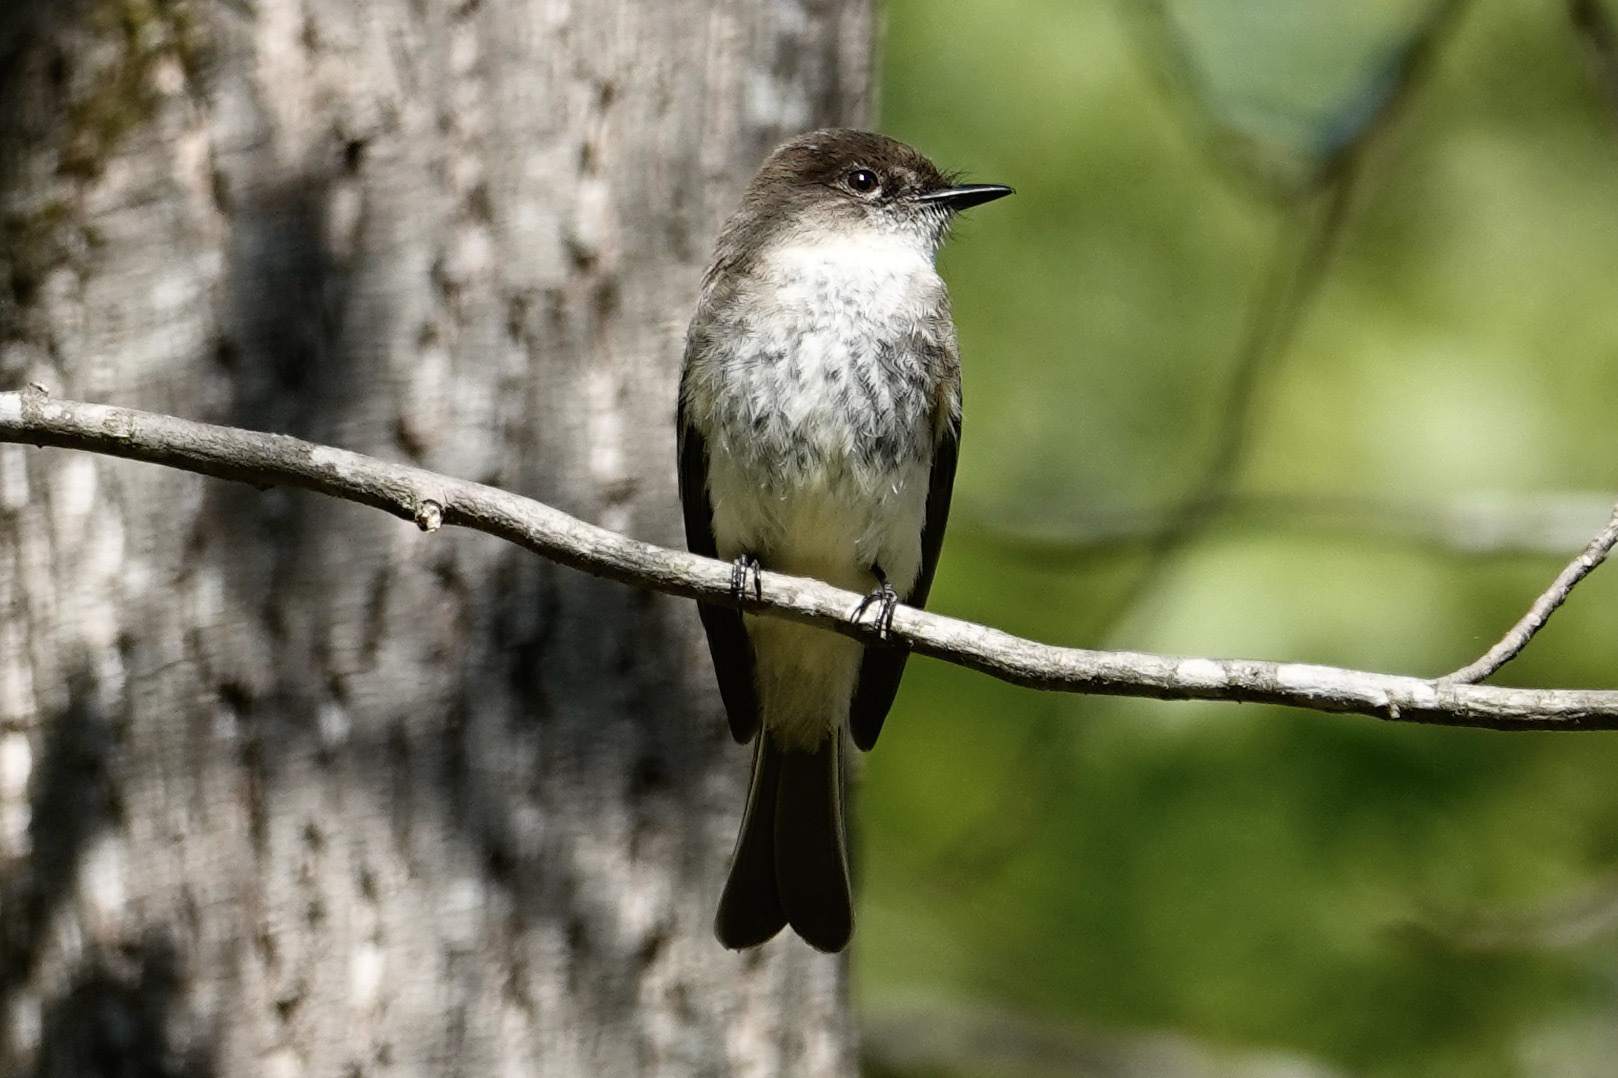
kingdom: Animalia
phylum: Chordata
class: Aves
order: Passeriformes
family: Tyrannidae
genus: Sayornis
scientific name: Sayornis phoebe
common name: Eastern phoebe
